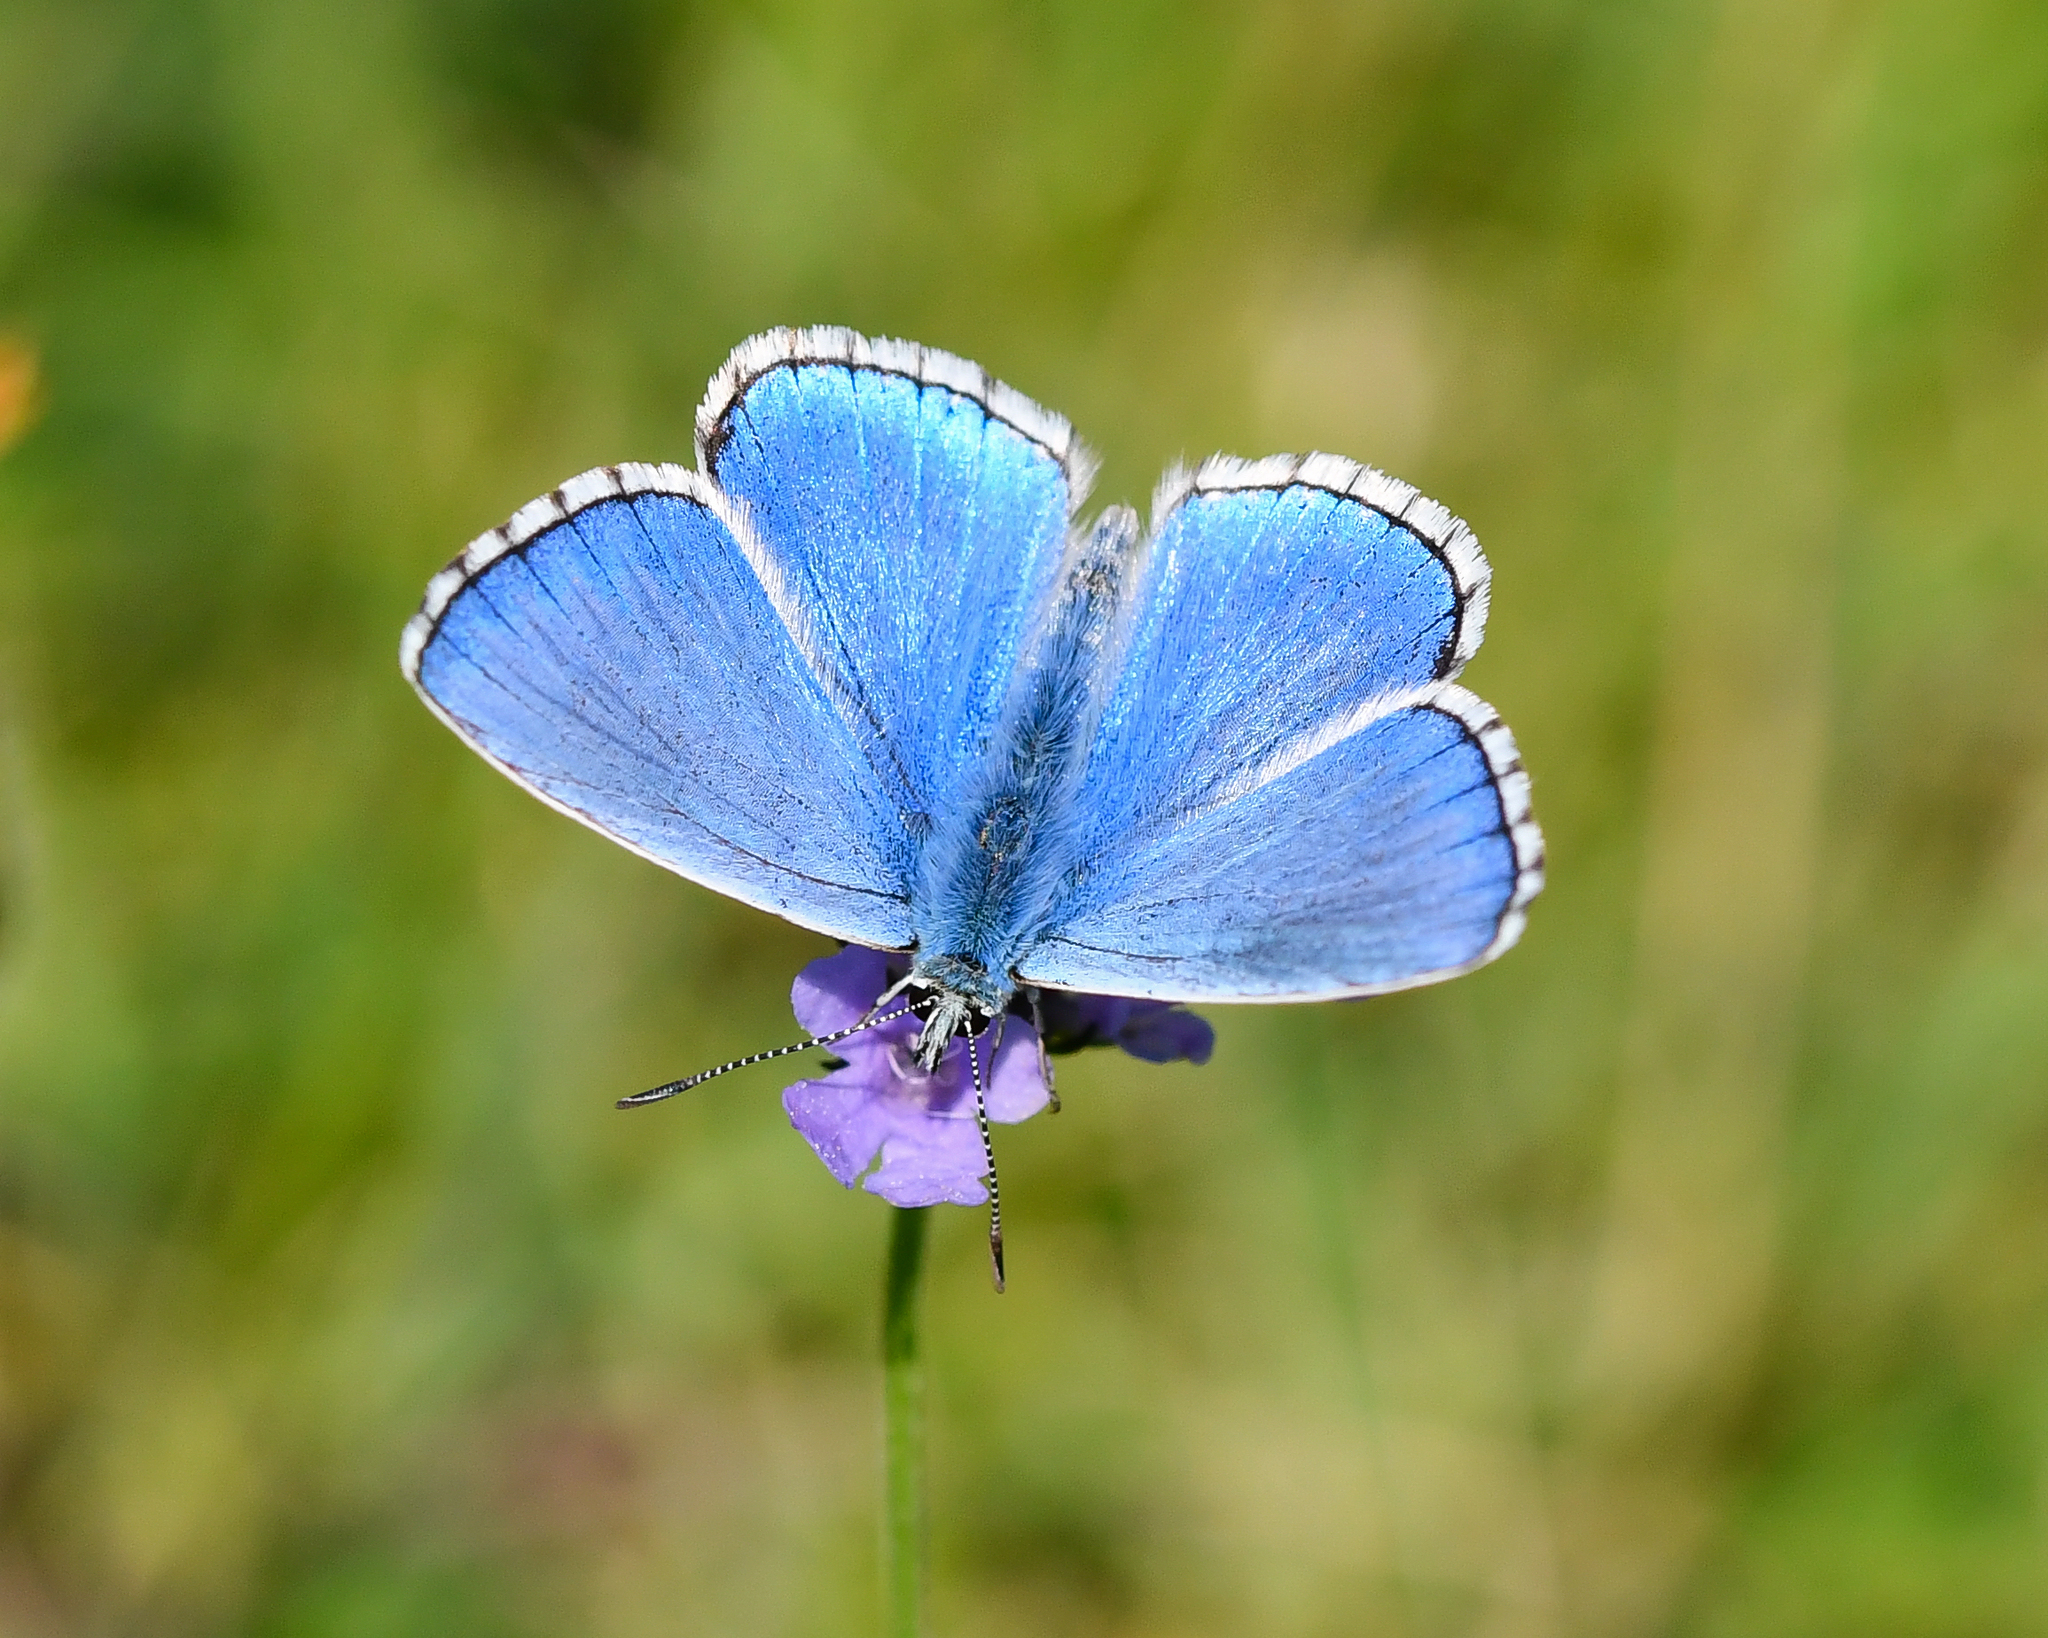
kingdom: Animalia
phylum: Arthropoda
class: Insecta
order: Lepidoptera
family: Lycaenidae
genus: Lysandra
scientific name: Lysandra bellargus
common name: Adonis blue
